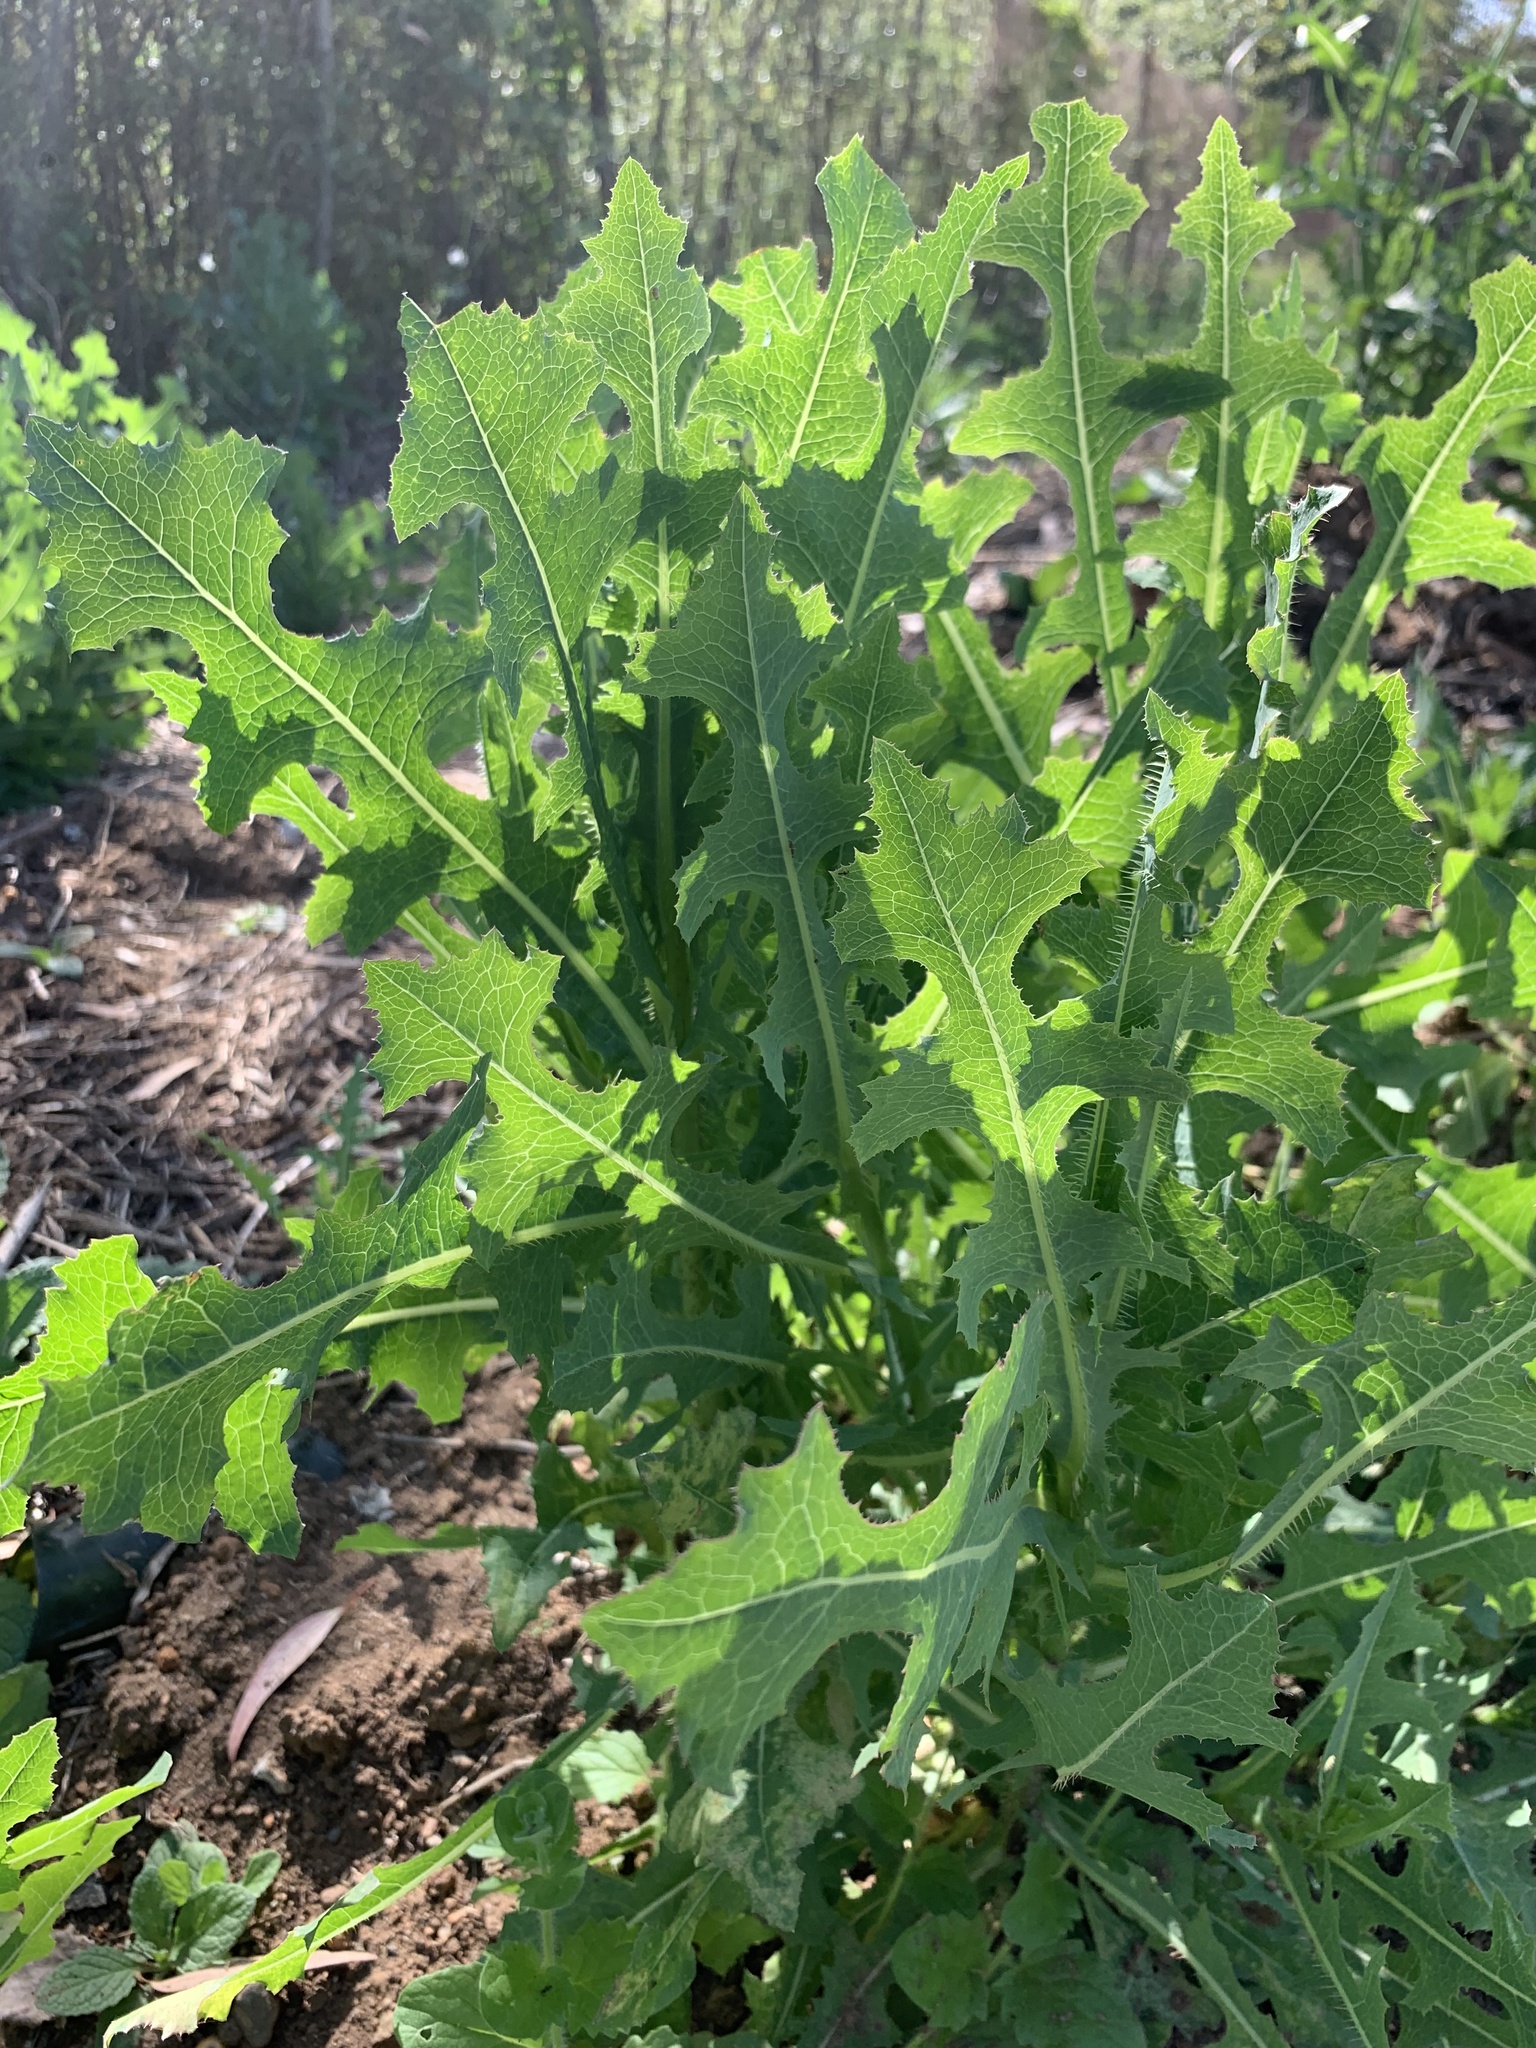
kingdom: Plantae
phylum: Tracheophyta
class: Magnoliopsida
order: Asterales
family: Asteraceae
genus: Lactuca
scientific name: Lactuca serriola
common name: Prickly lettuce
